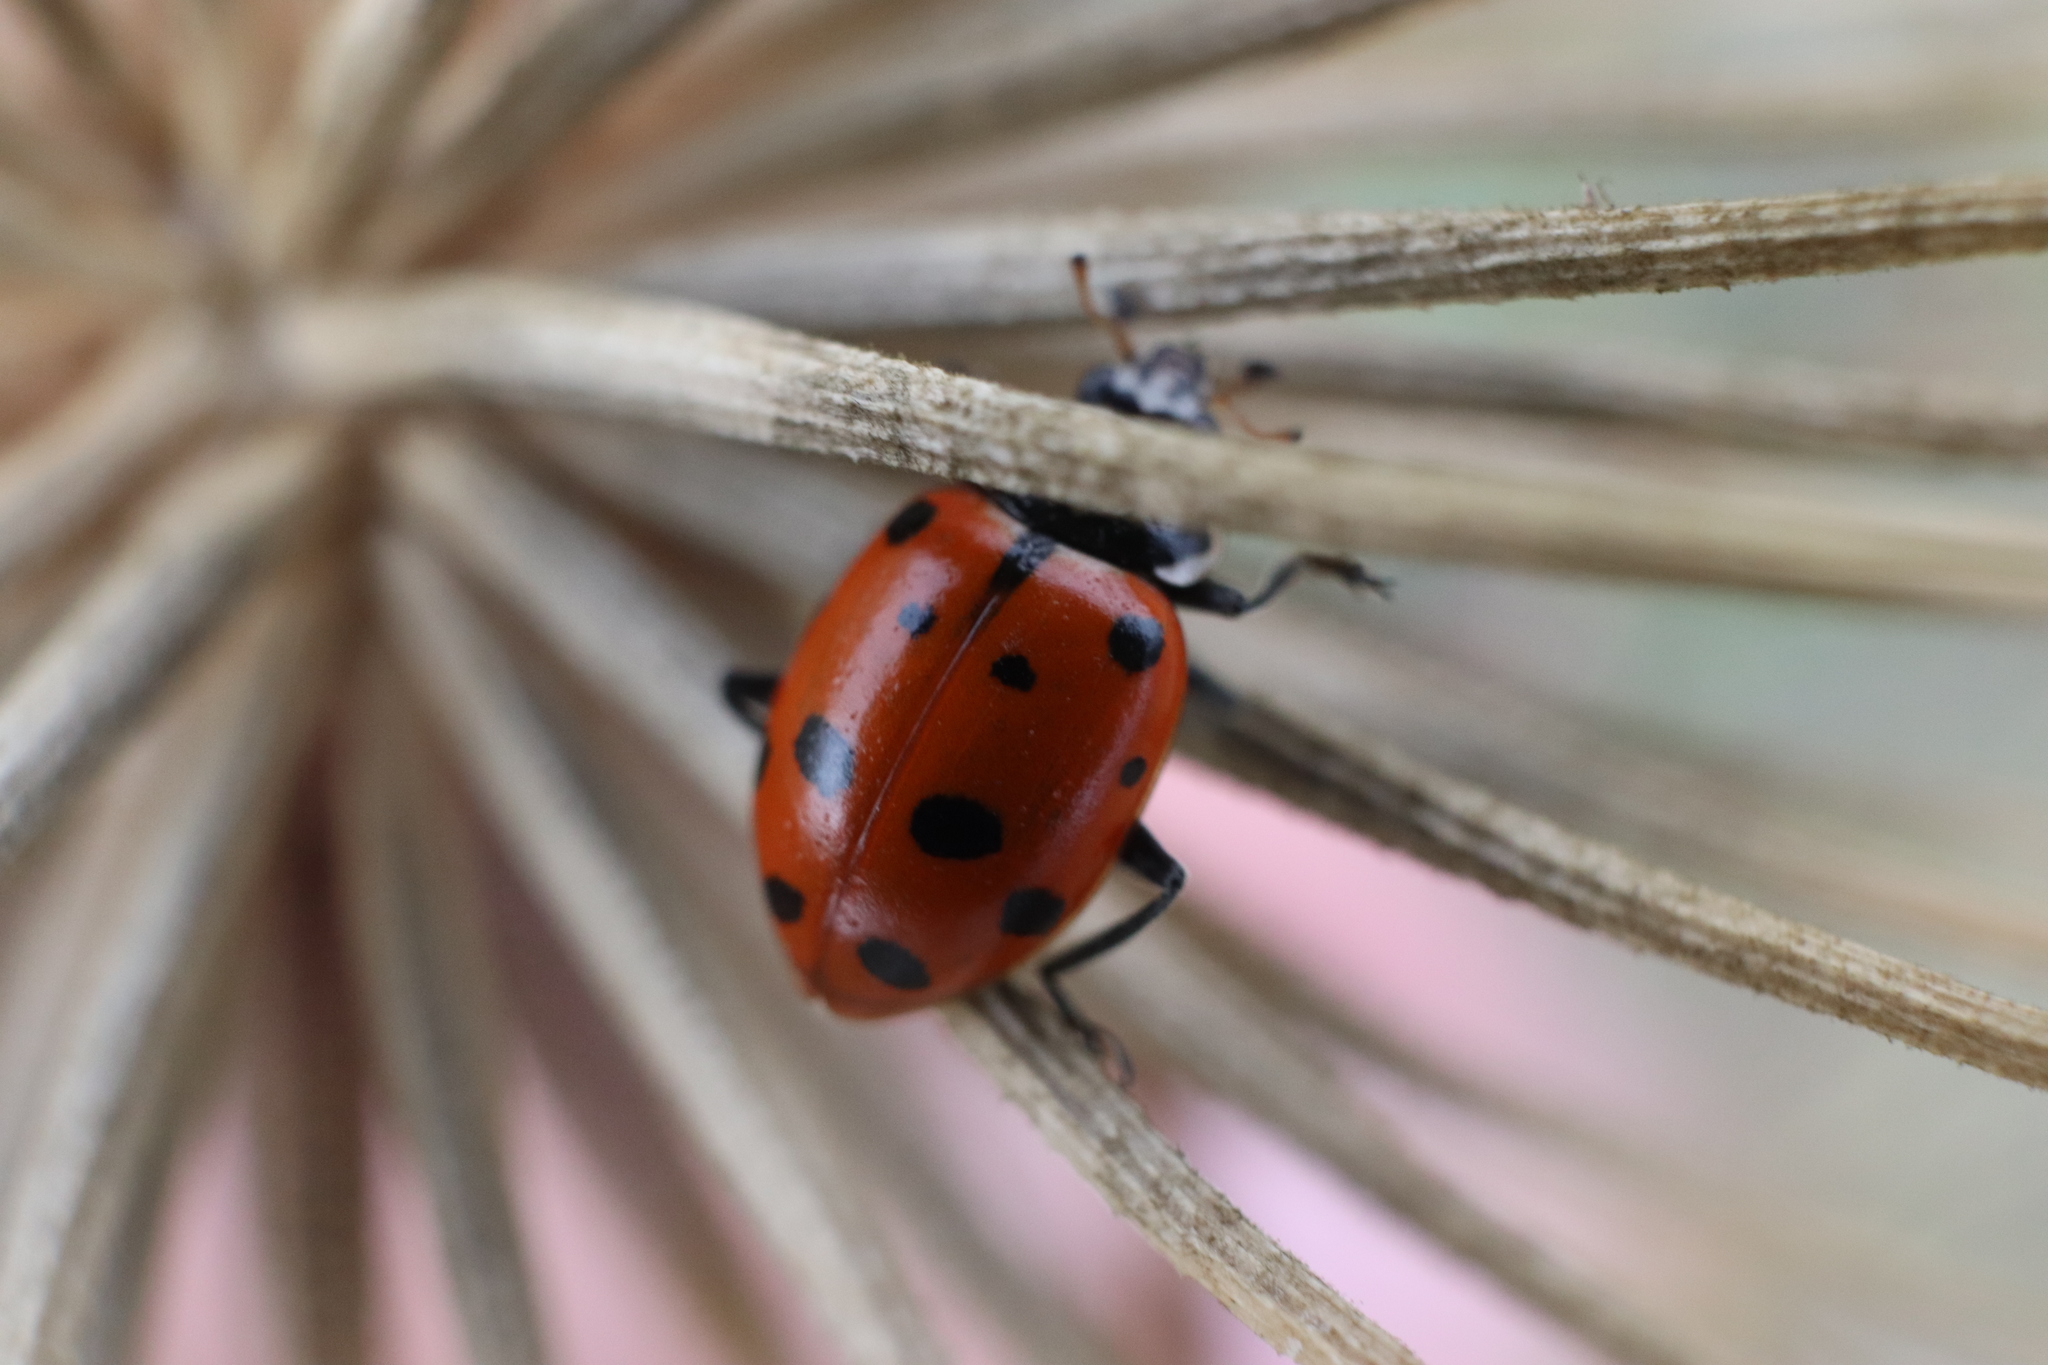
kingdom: Animalia
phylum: Arthropoda
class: Insecta
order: Coleoptera
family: Coccinellidae
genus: Hippodamia
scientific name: Hippodamia convergens
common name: Convergent lady beetle
